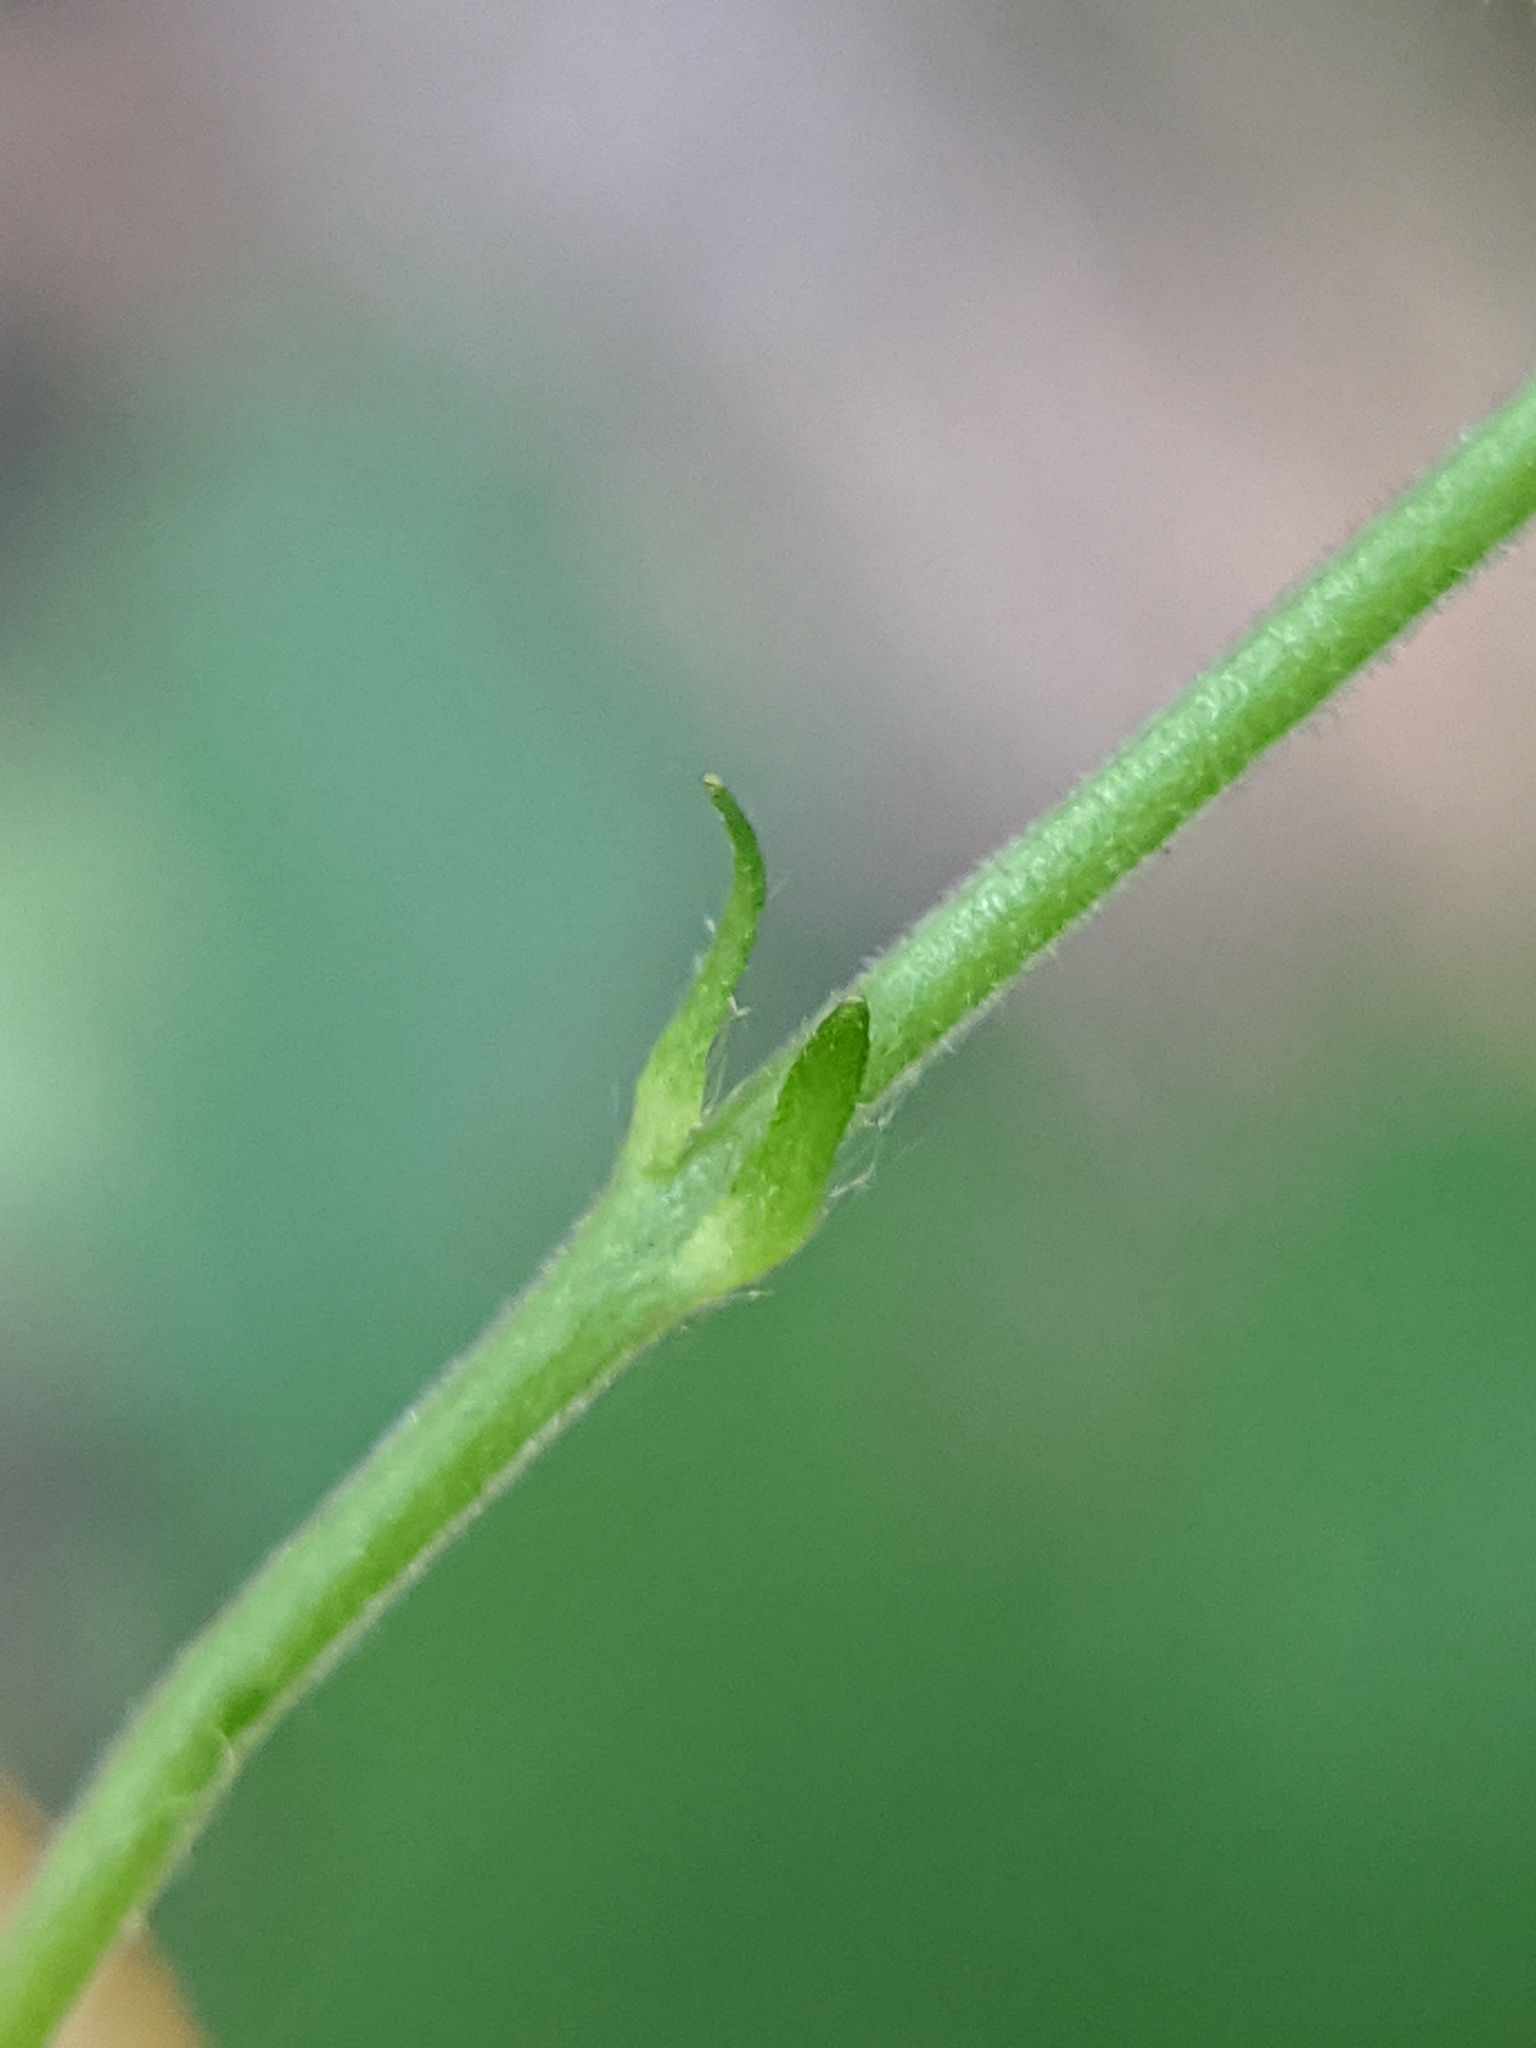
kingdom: Plantae
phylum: Tracheophyta
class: Magnoliopsida
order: Rosales
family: Rosaceae
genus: Geum
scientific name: Geum canadense
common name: White avens
